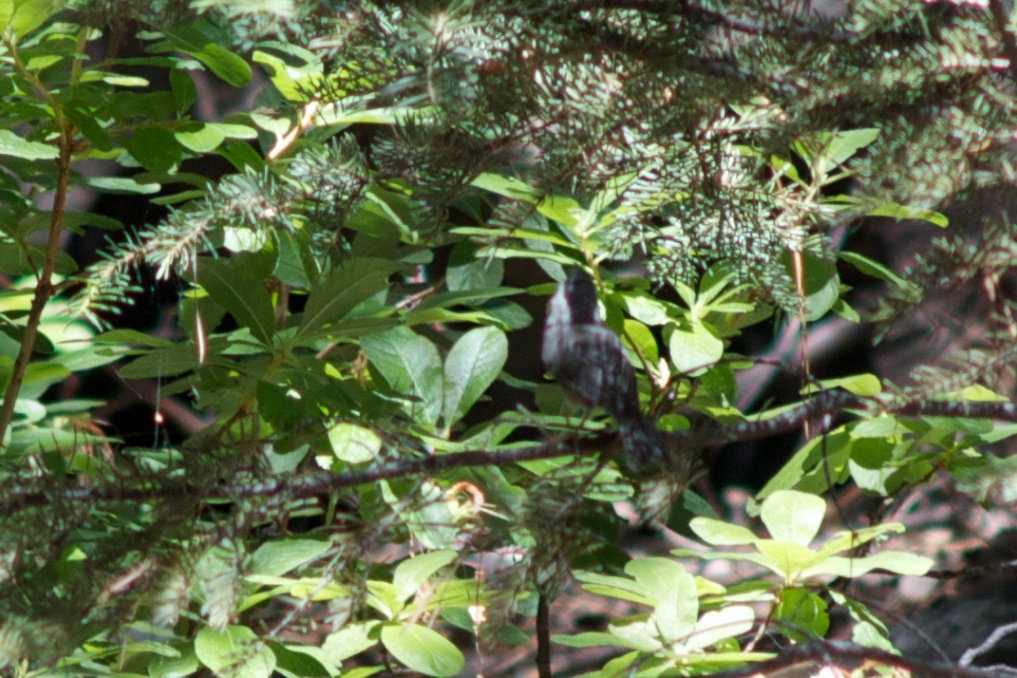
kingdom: Animalia
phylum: Chordata
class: Aves
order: Passeriformes
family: Paridae
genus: Poecile
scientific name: Poecile gambeli
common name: Mountain chickadee
